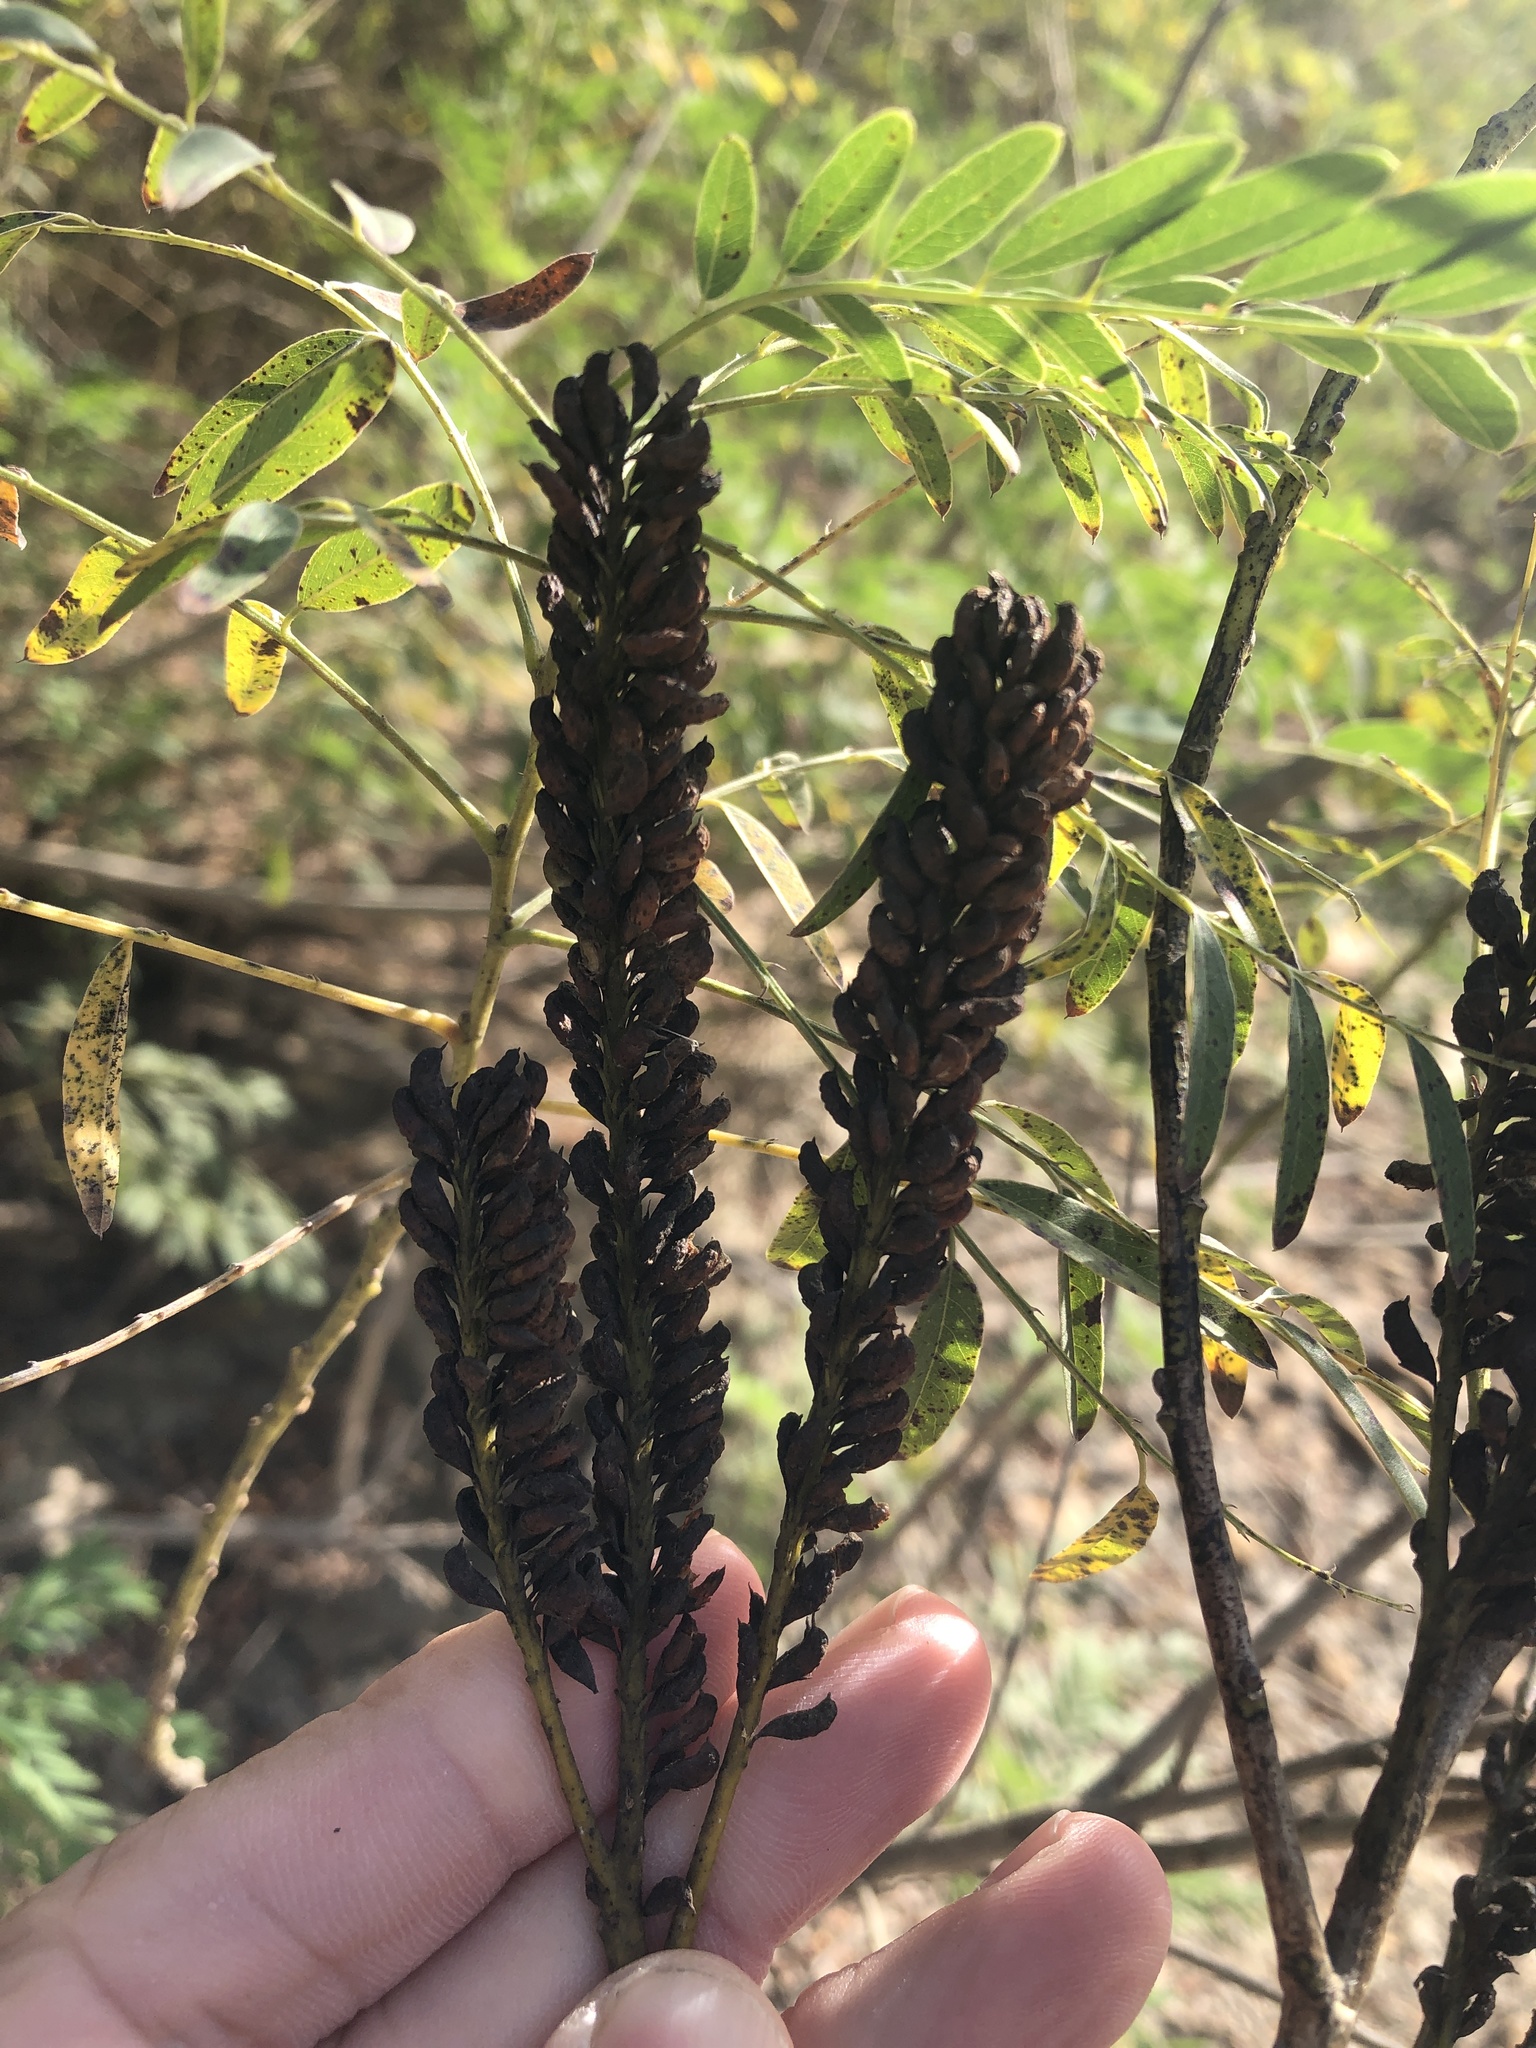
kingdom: Plantae
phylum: Tracheophyta
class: Magnoliopsida
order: Fabales
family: Fabaceae
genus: Amorpha
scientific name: Amorpha fruticosa
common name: False indigo
